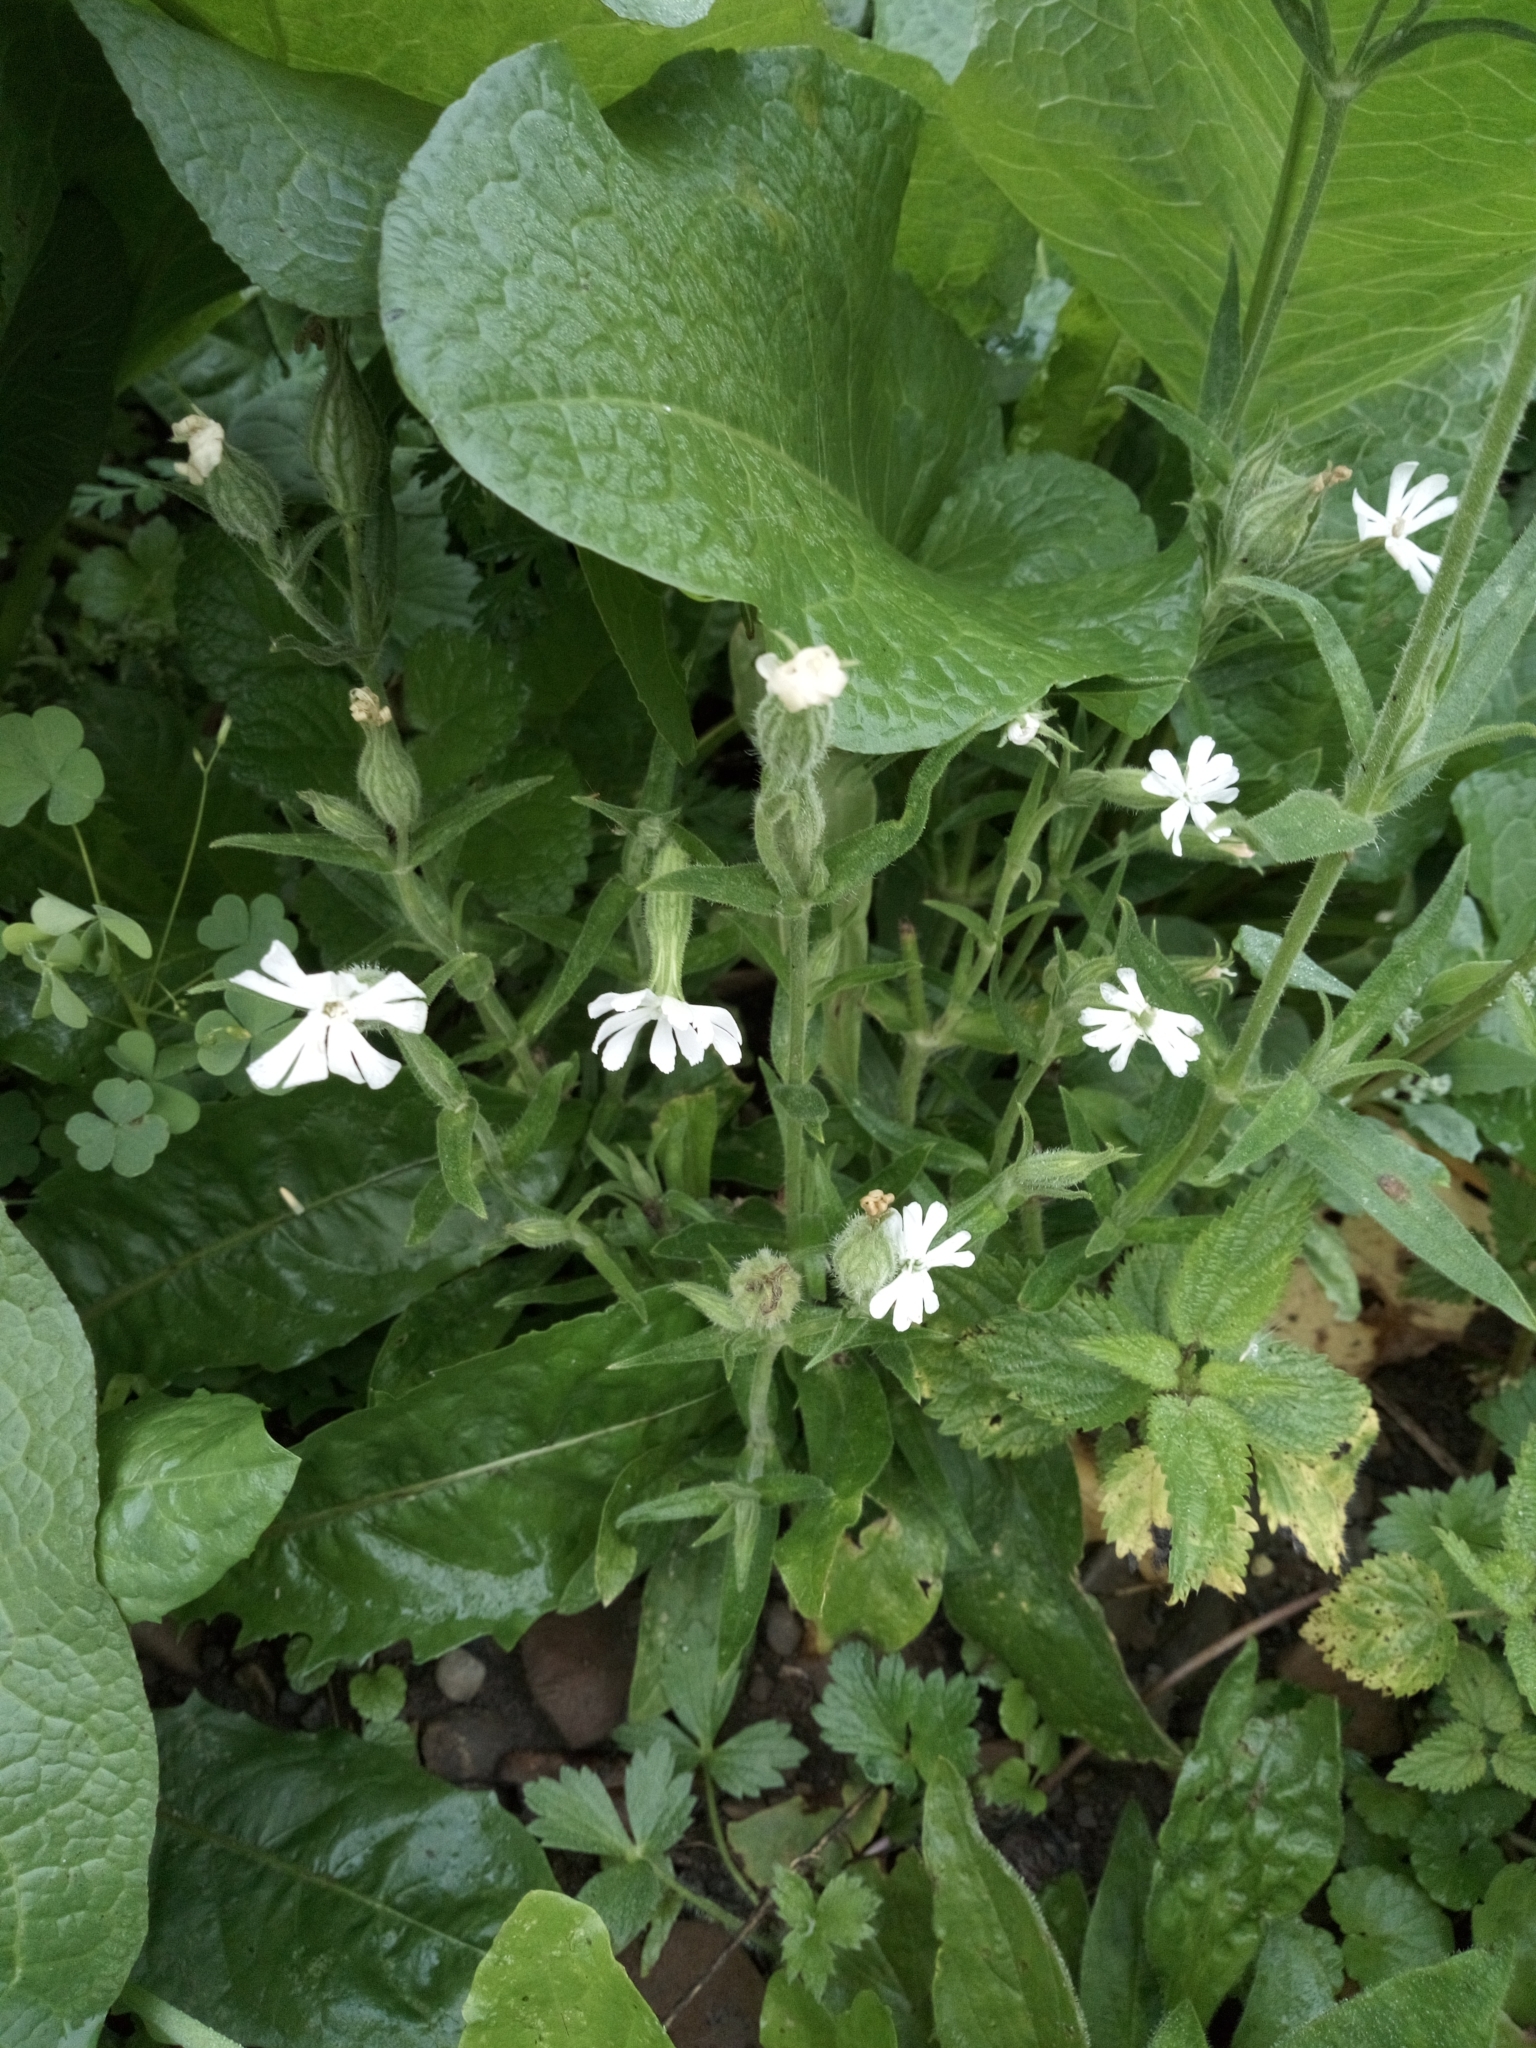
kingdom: Plantae
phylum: Tracheophyta
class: Magnoliopsida
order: Caryophyllales
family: Caryophyllaceae
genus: Silene
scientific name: Silene noctiflora
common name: Night-flowering catchfly
